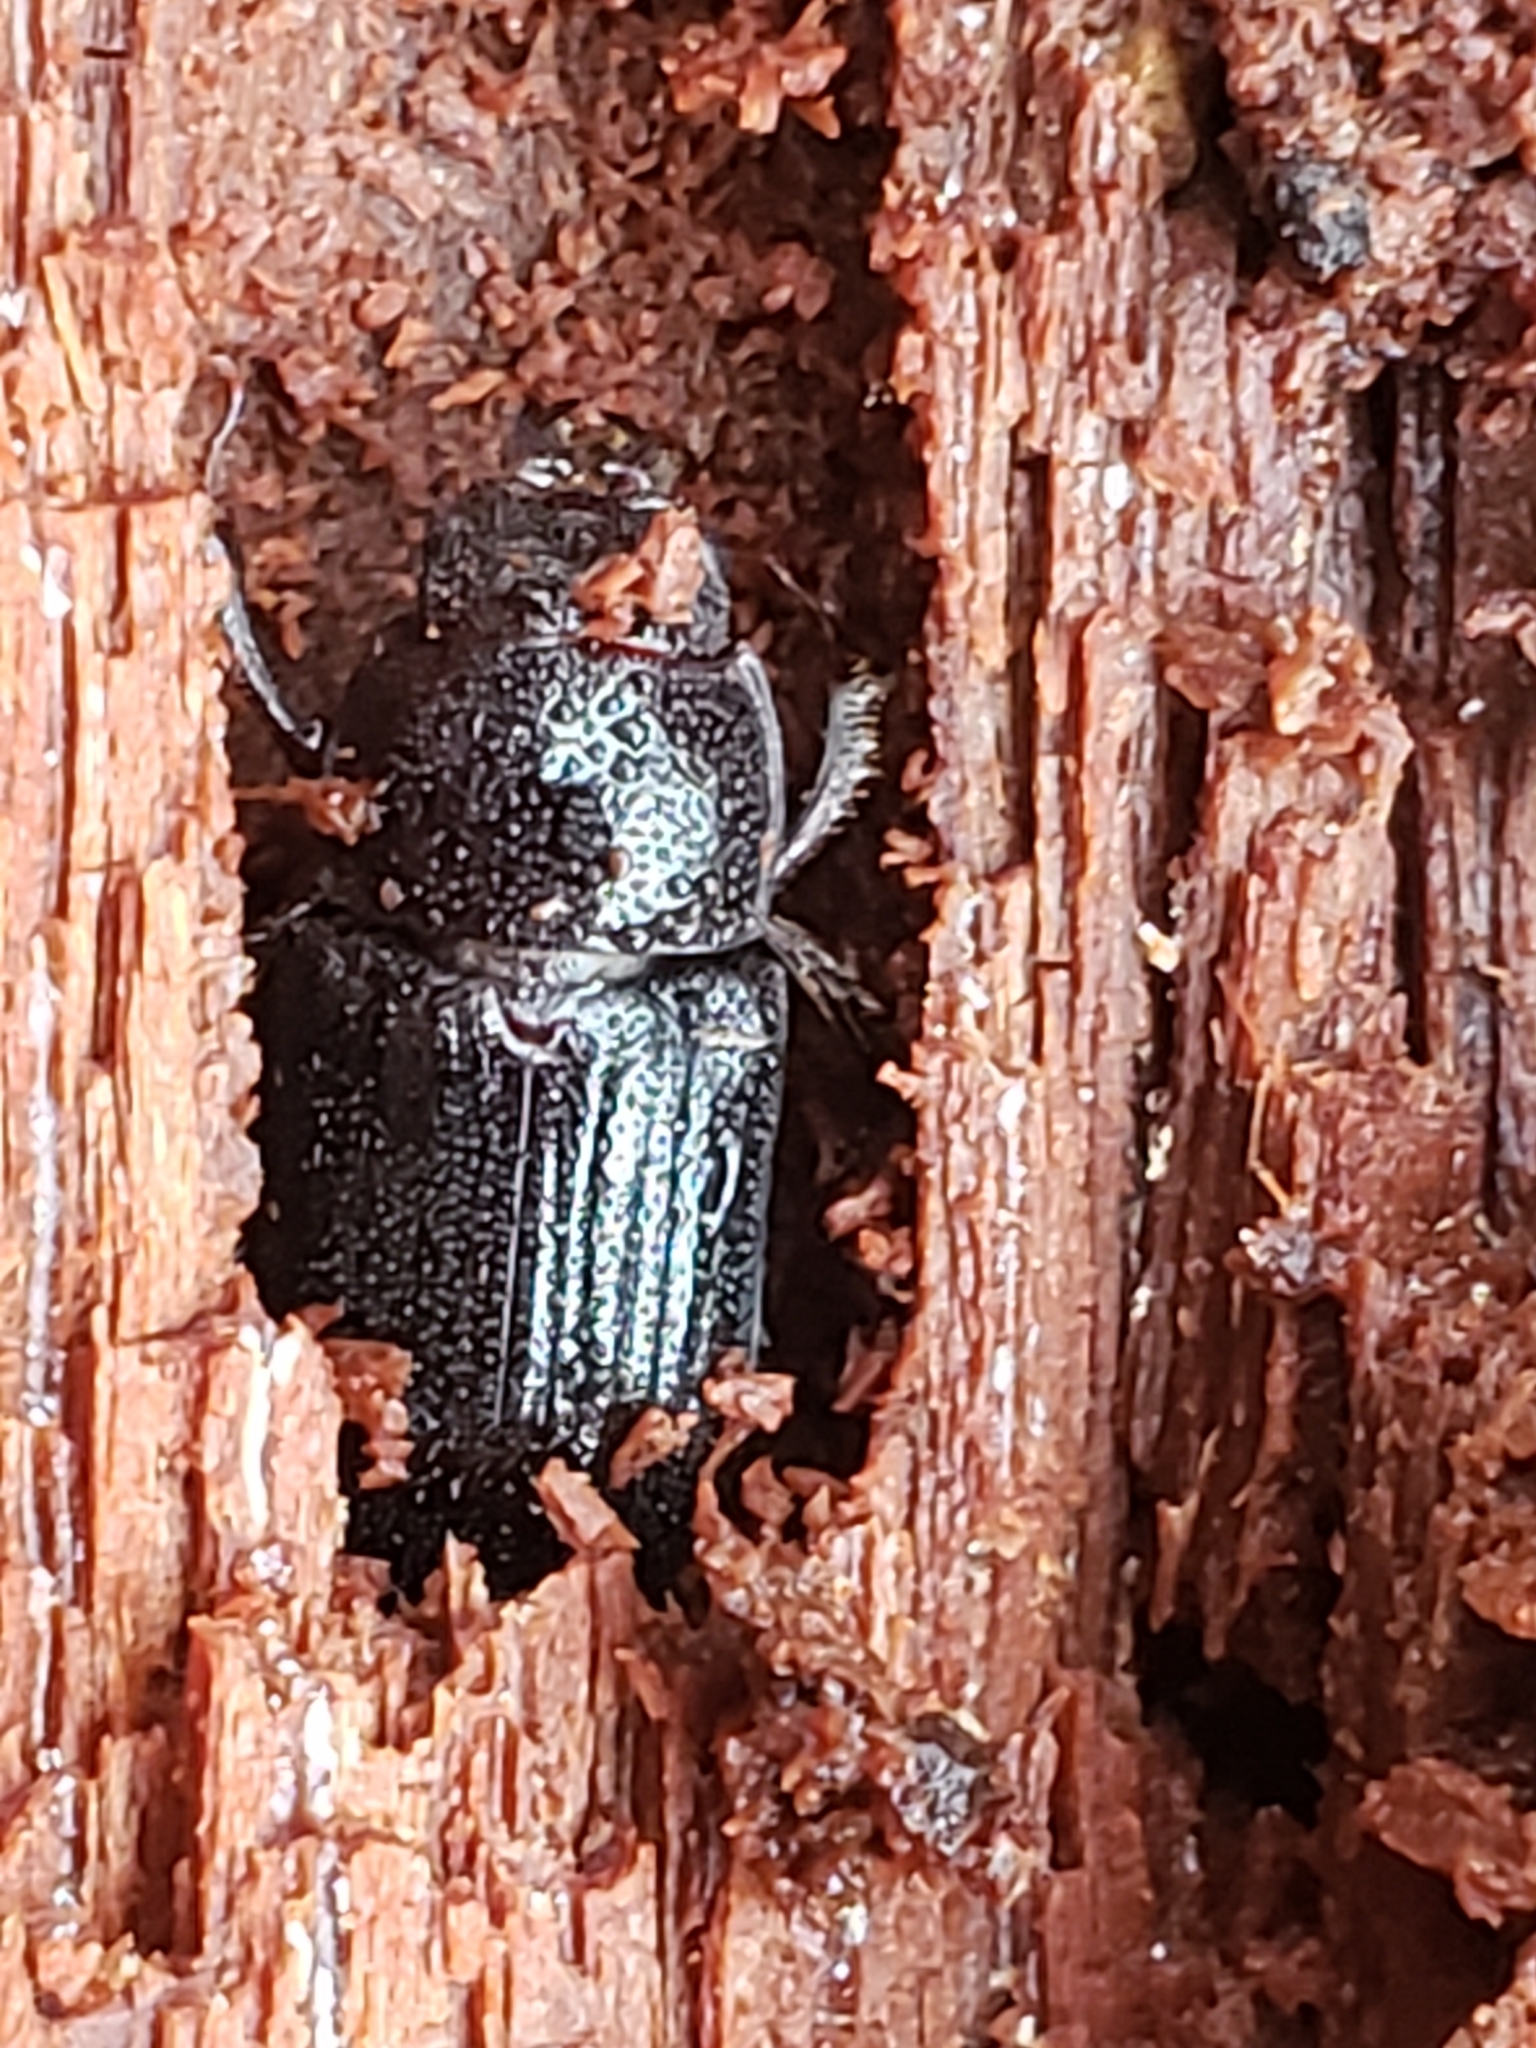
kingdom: Animalia
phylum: Arthropoda
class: Insecta
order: Coleoptera
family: Lucanidae
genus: Ceruchus
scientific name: Ceruchus piceus
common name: Red-rot decay stag beetle
